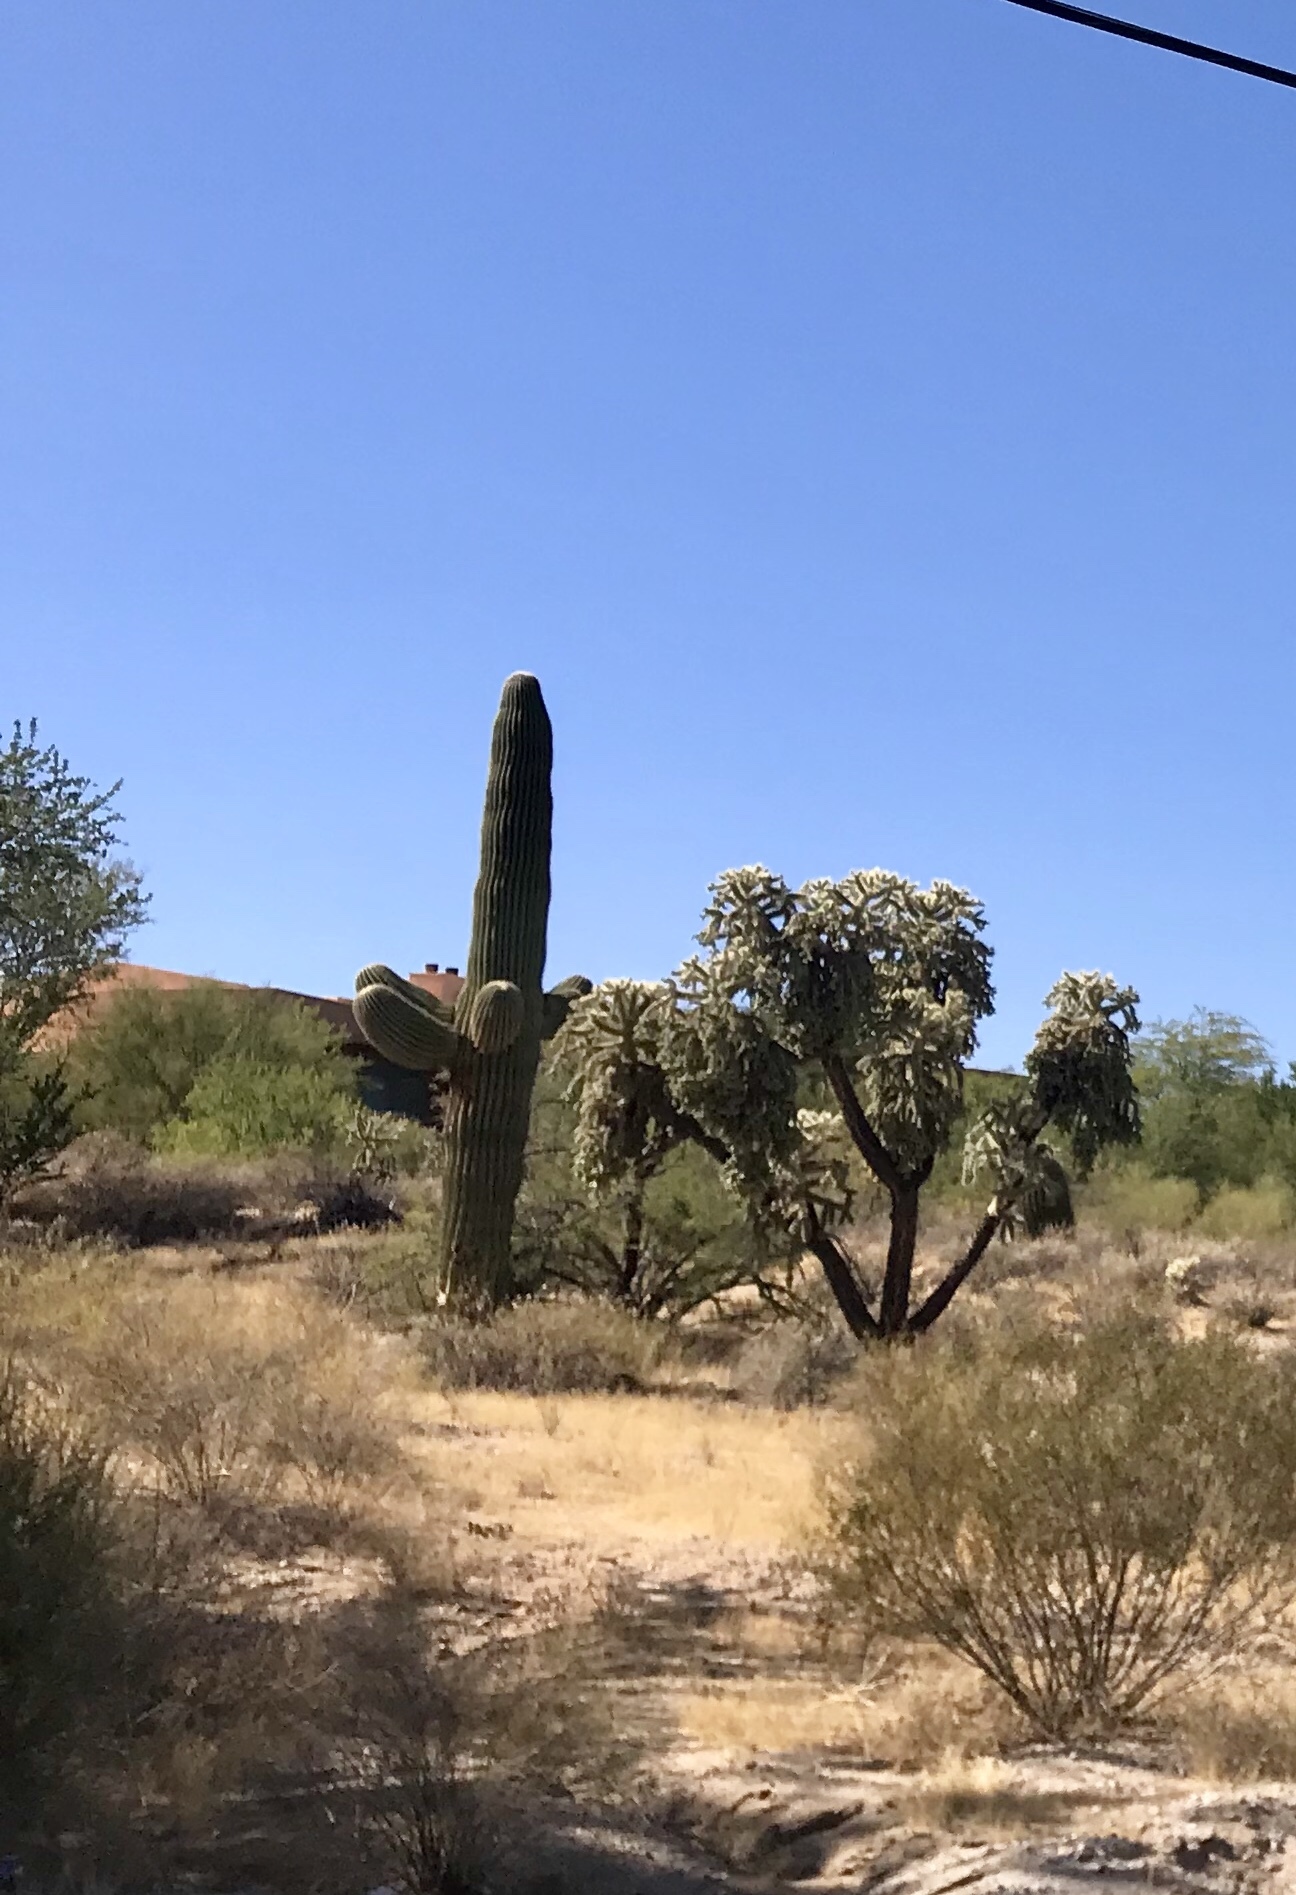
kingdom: Plantae
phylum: Tracheophyta
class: Magnoliopsida
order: Caryophyllales
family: Cactaceae
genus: Carnegiea
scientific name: Carnegiea gigantea
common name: Saguaro
